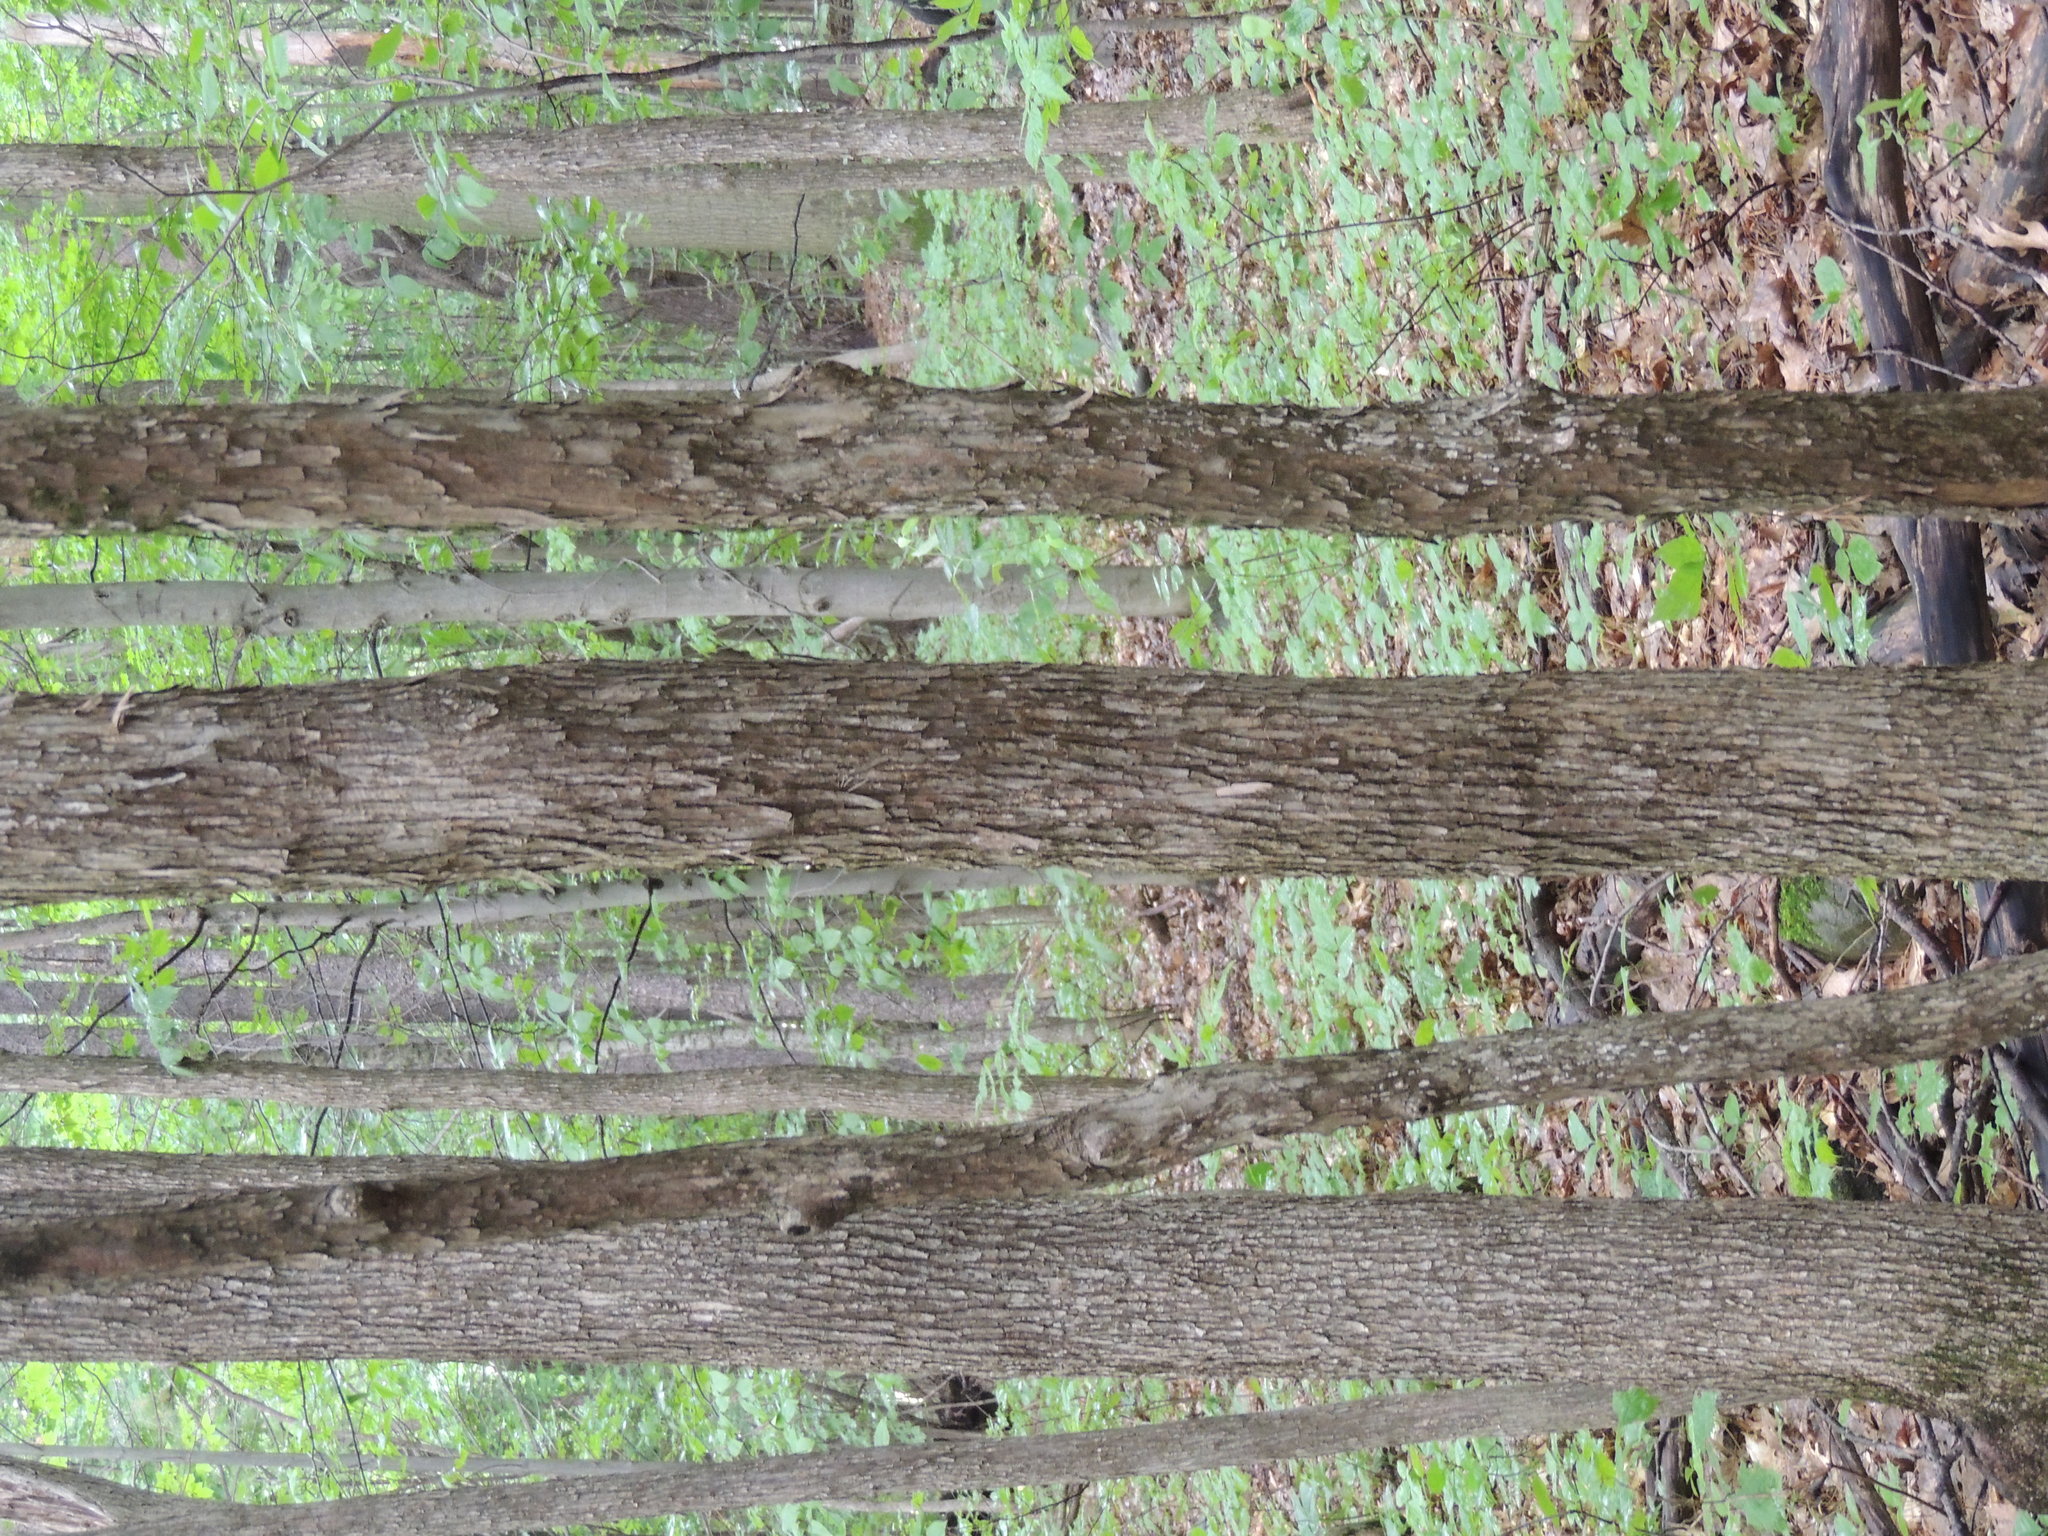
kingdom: Plantae
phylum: Tracheophyta
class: Magnoliopsida
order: Fagales
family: Betulaceae
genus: Ostrya
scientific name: Ostrya virginiana
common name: Ironwood
